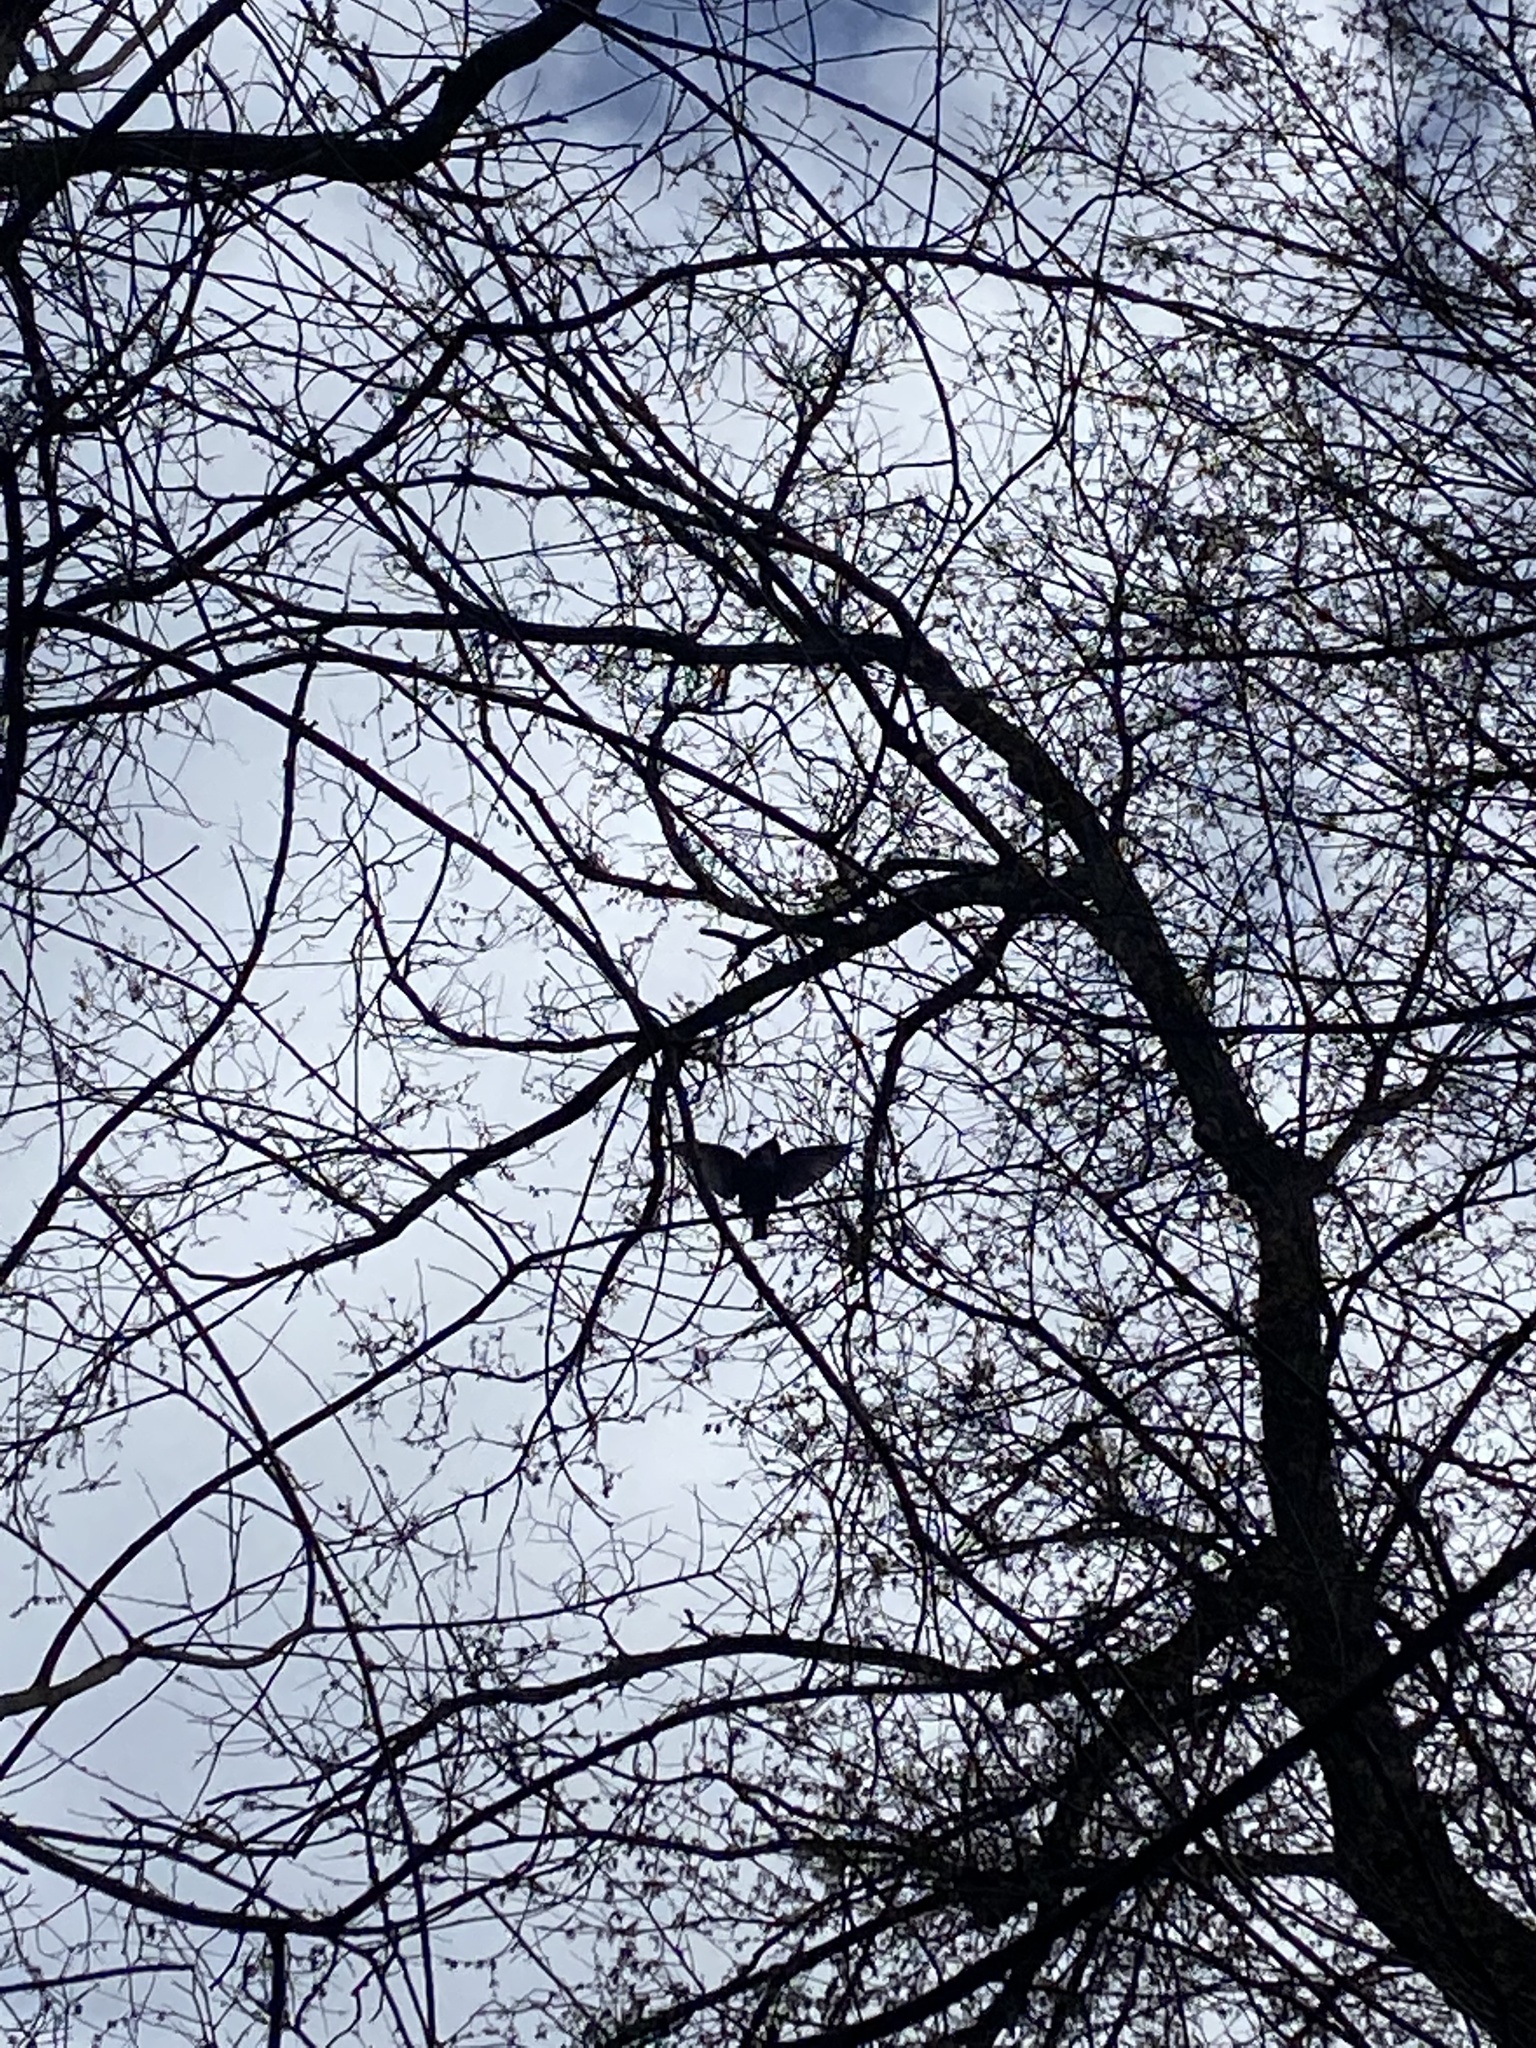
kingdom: Animalia
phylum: Chordata
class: Aves
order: Passeriformes
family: Sturnidae
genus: Sturnus
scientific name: Sturnus vulgaris
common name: Common starling
